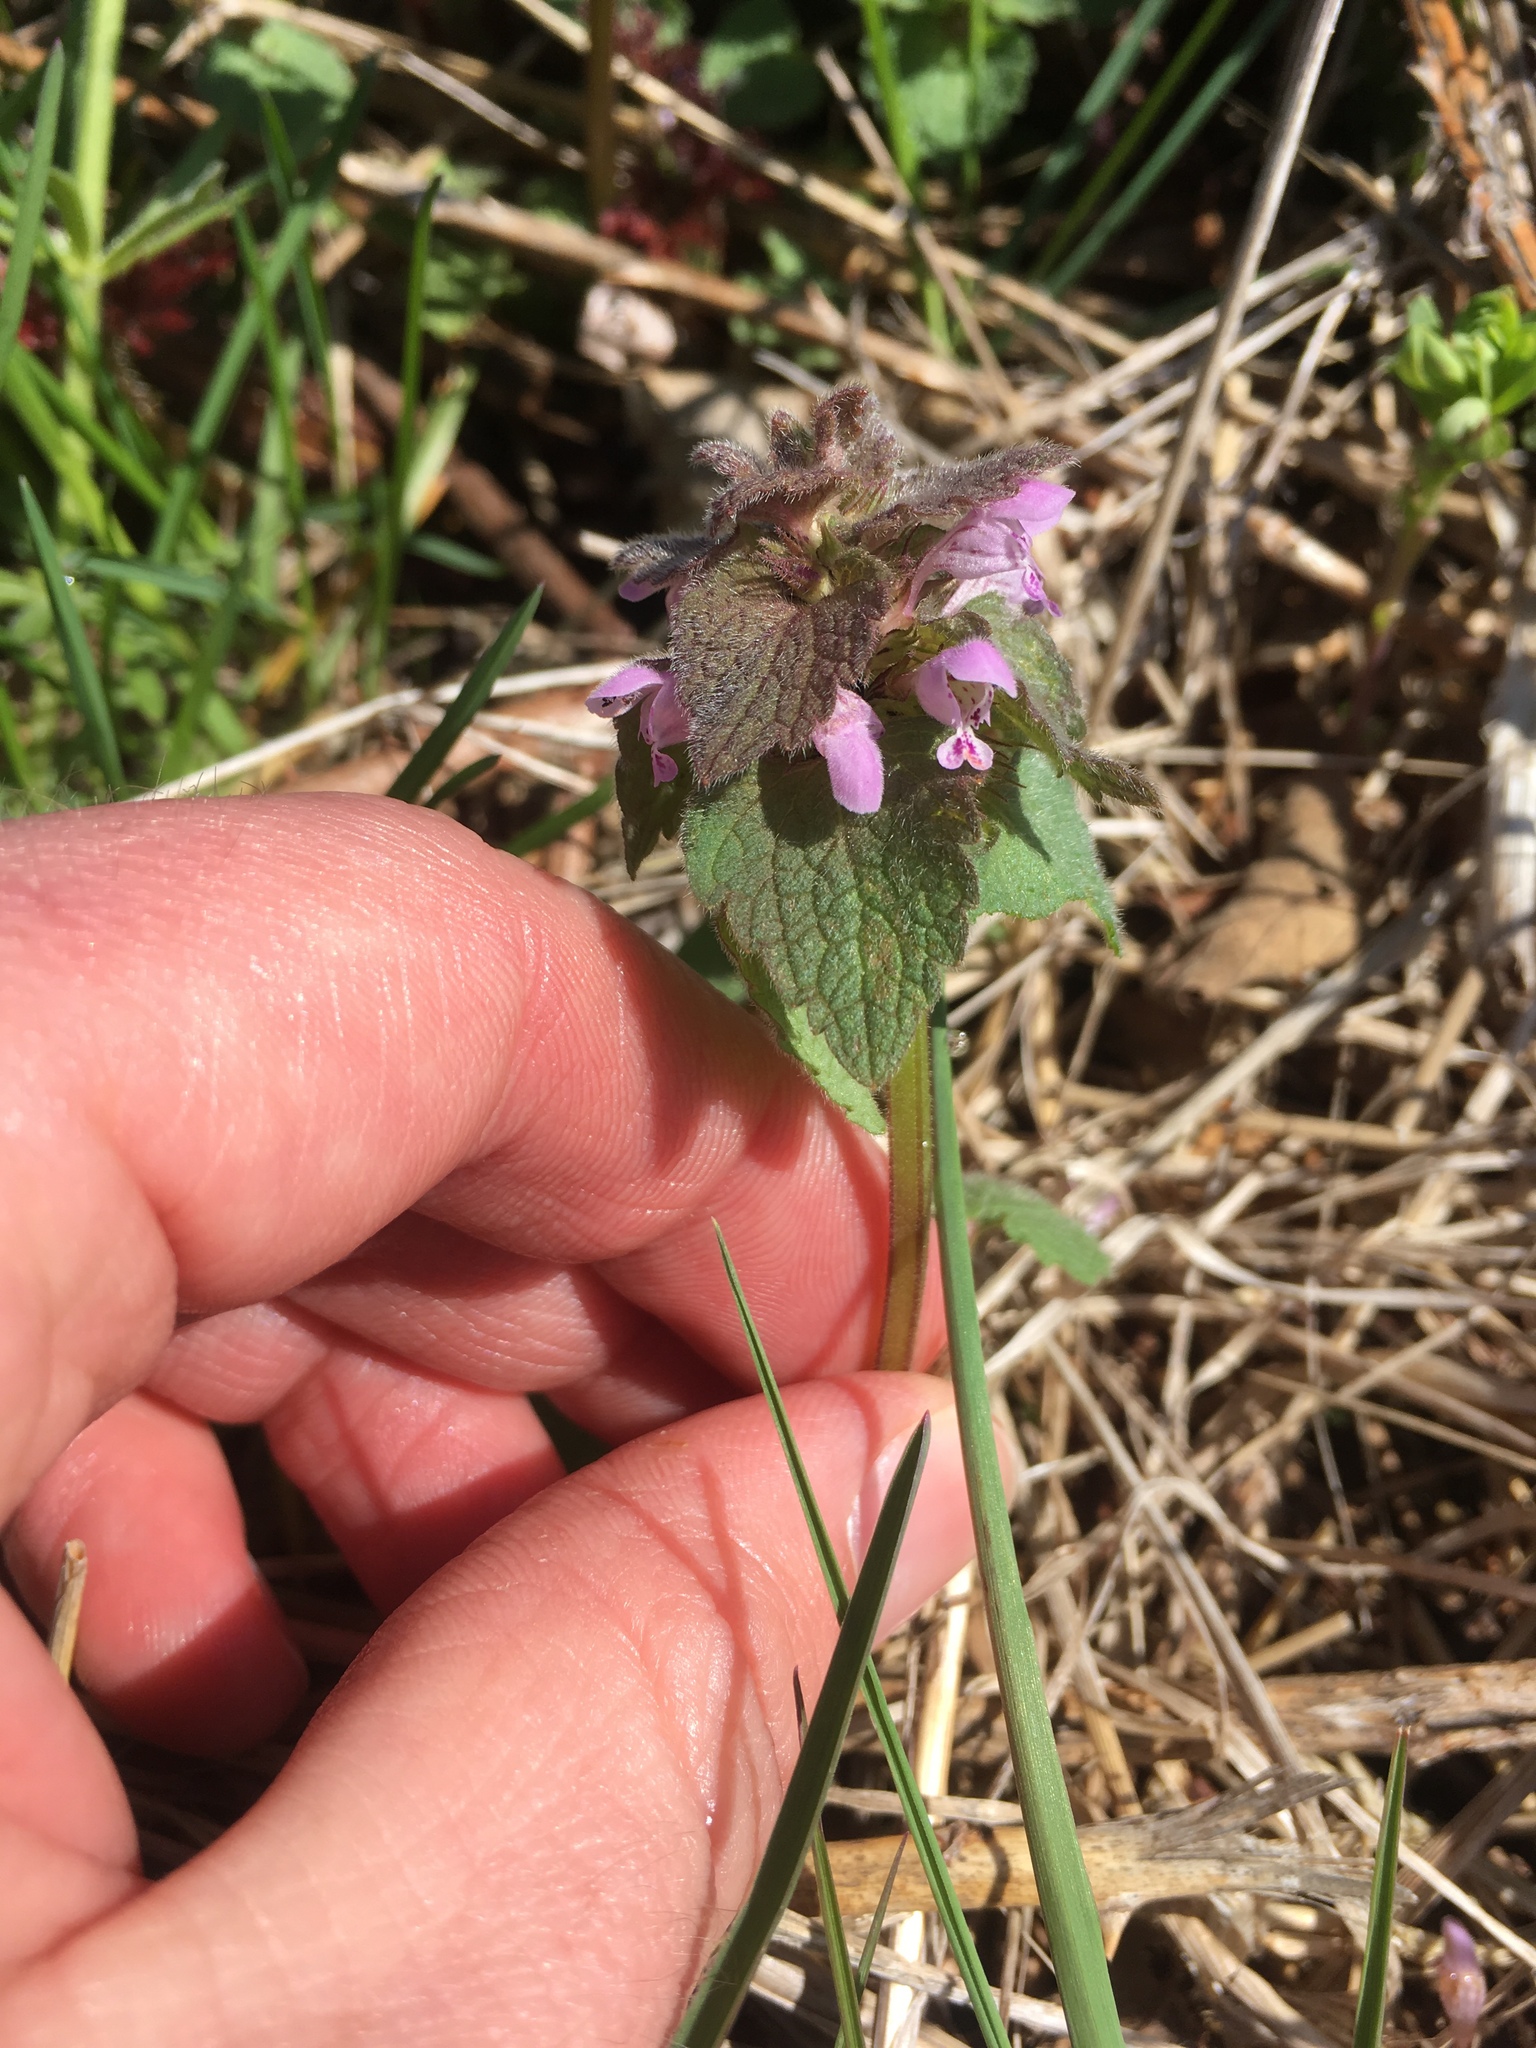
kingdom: Plantae
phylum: Tracheophyta
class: Magnoliopsida
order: Lamiales
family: Lamiaceae
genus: Lamium
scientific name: Lamium purpureum
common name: Red dead-nettle
